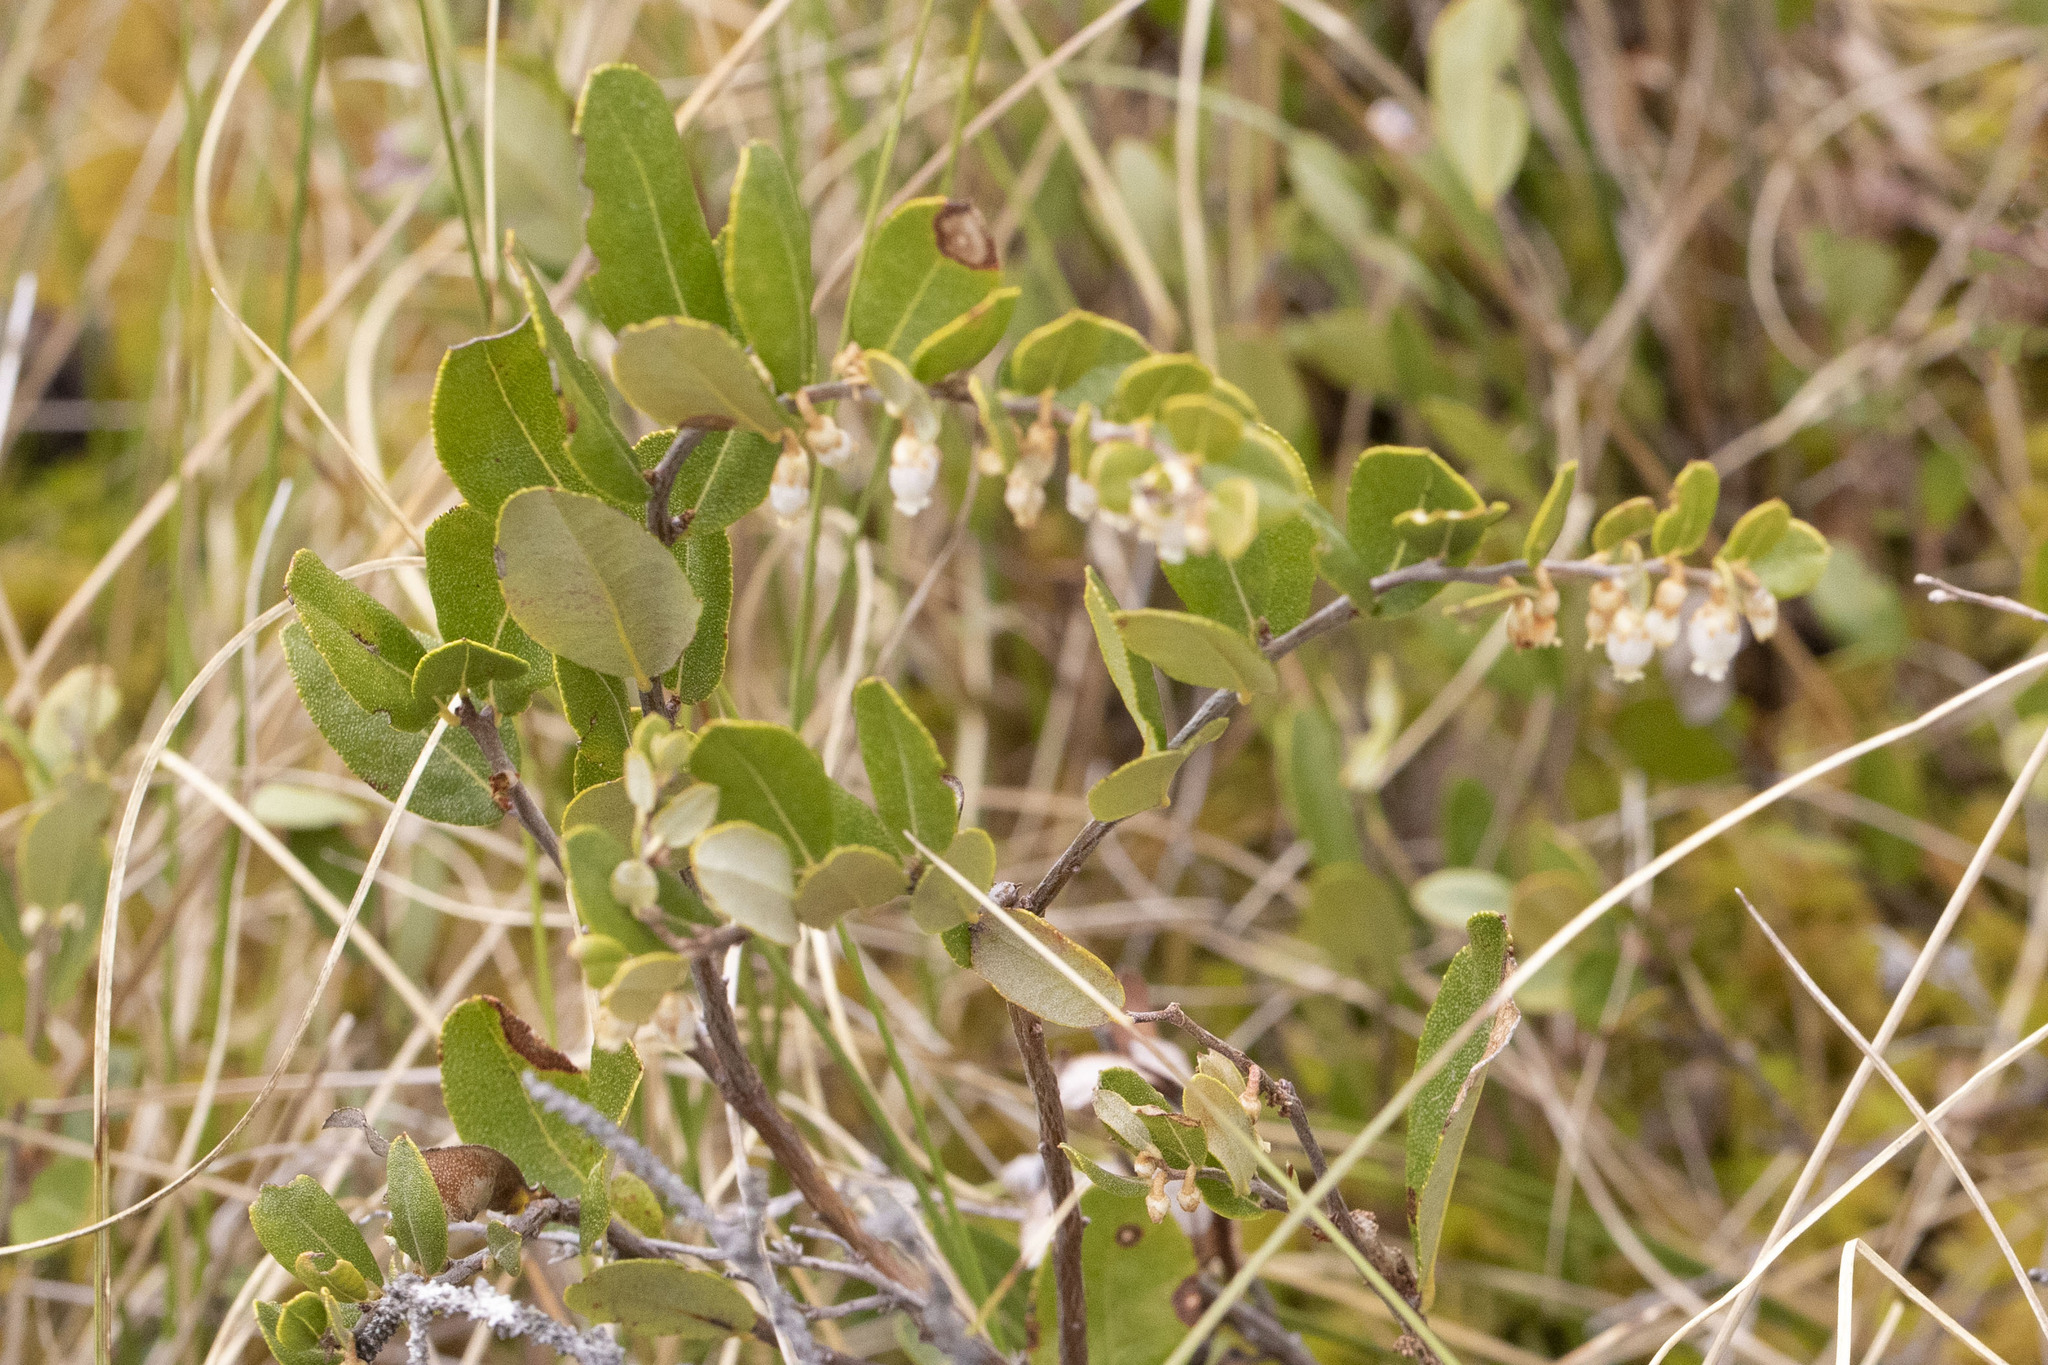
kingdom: Plantae
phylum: Tracheophyta
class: Magnoliopsida
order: Ericales
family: Ericaceae
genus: Chamaedaphne
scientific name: Chamaedaphne calyculata
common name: Leatherleaf
